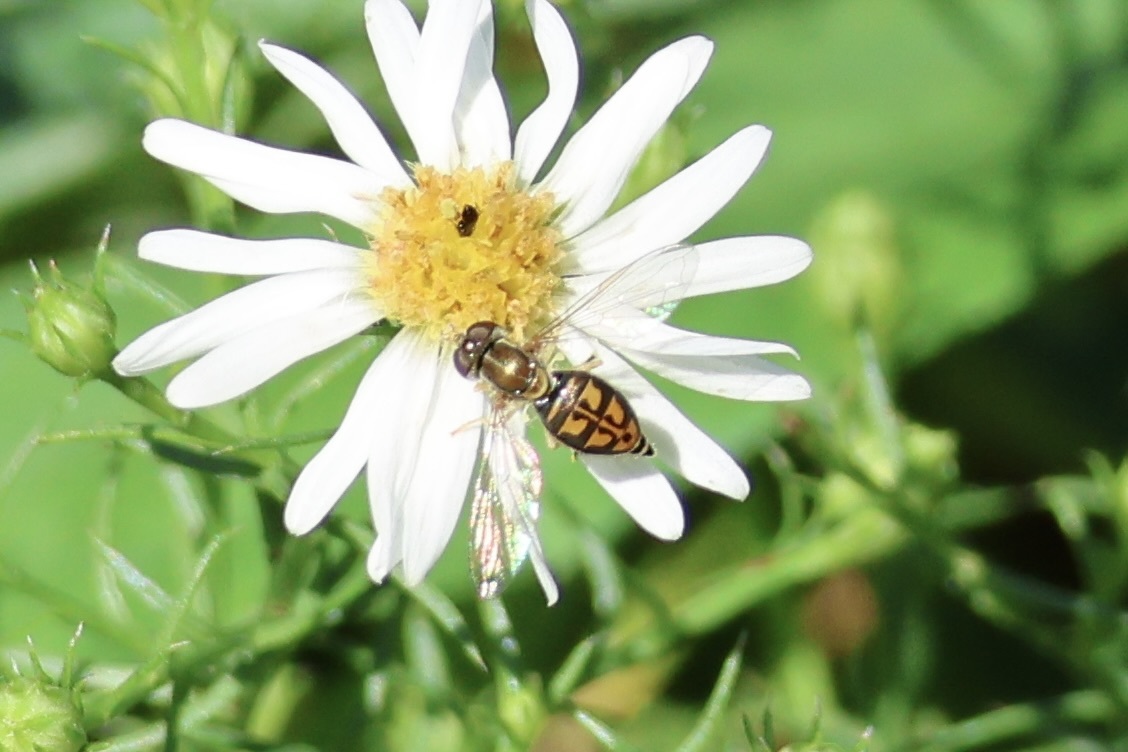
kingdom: Animalia
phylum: Arthropoda
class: Insecta
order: Diptera
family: Syrphidae
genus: Toxomerus
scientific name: Toxomerus marginatus
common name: Syrphid fly
